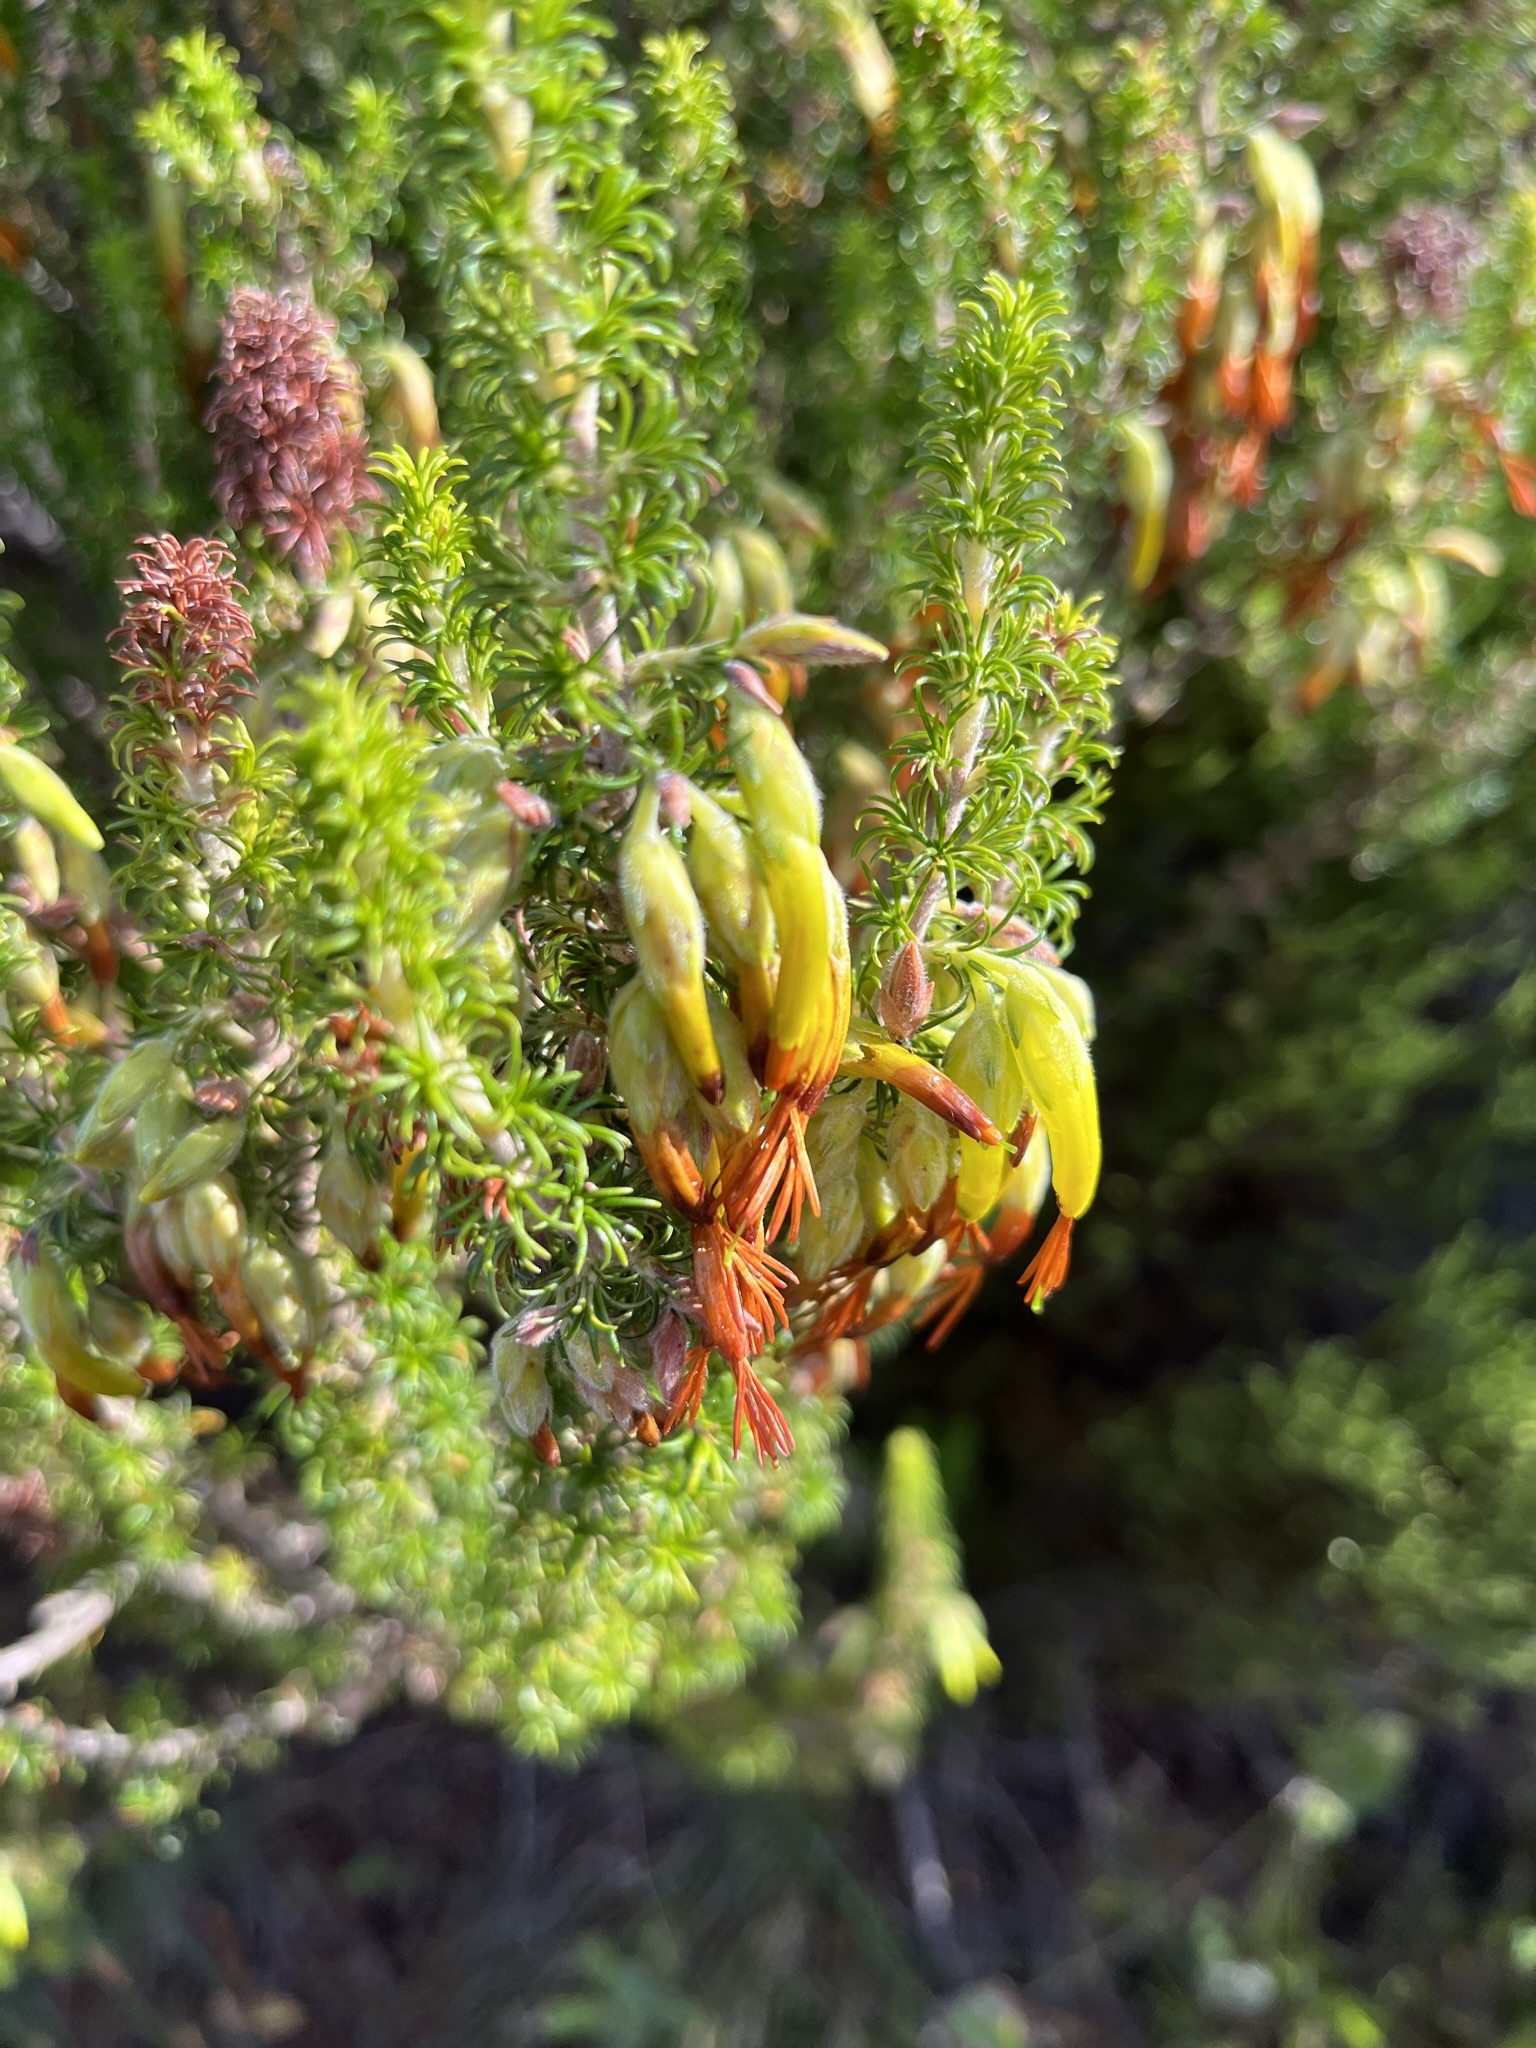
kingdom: Plantae
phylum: Tracheophyta
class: Magnoliopsida
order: Ericales
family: Ericaceae
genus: Erica
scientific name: Erica coccinea
